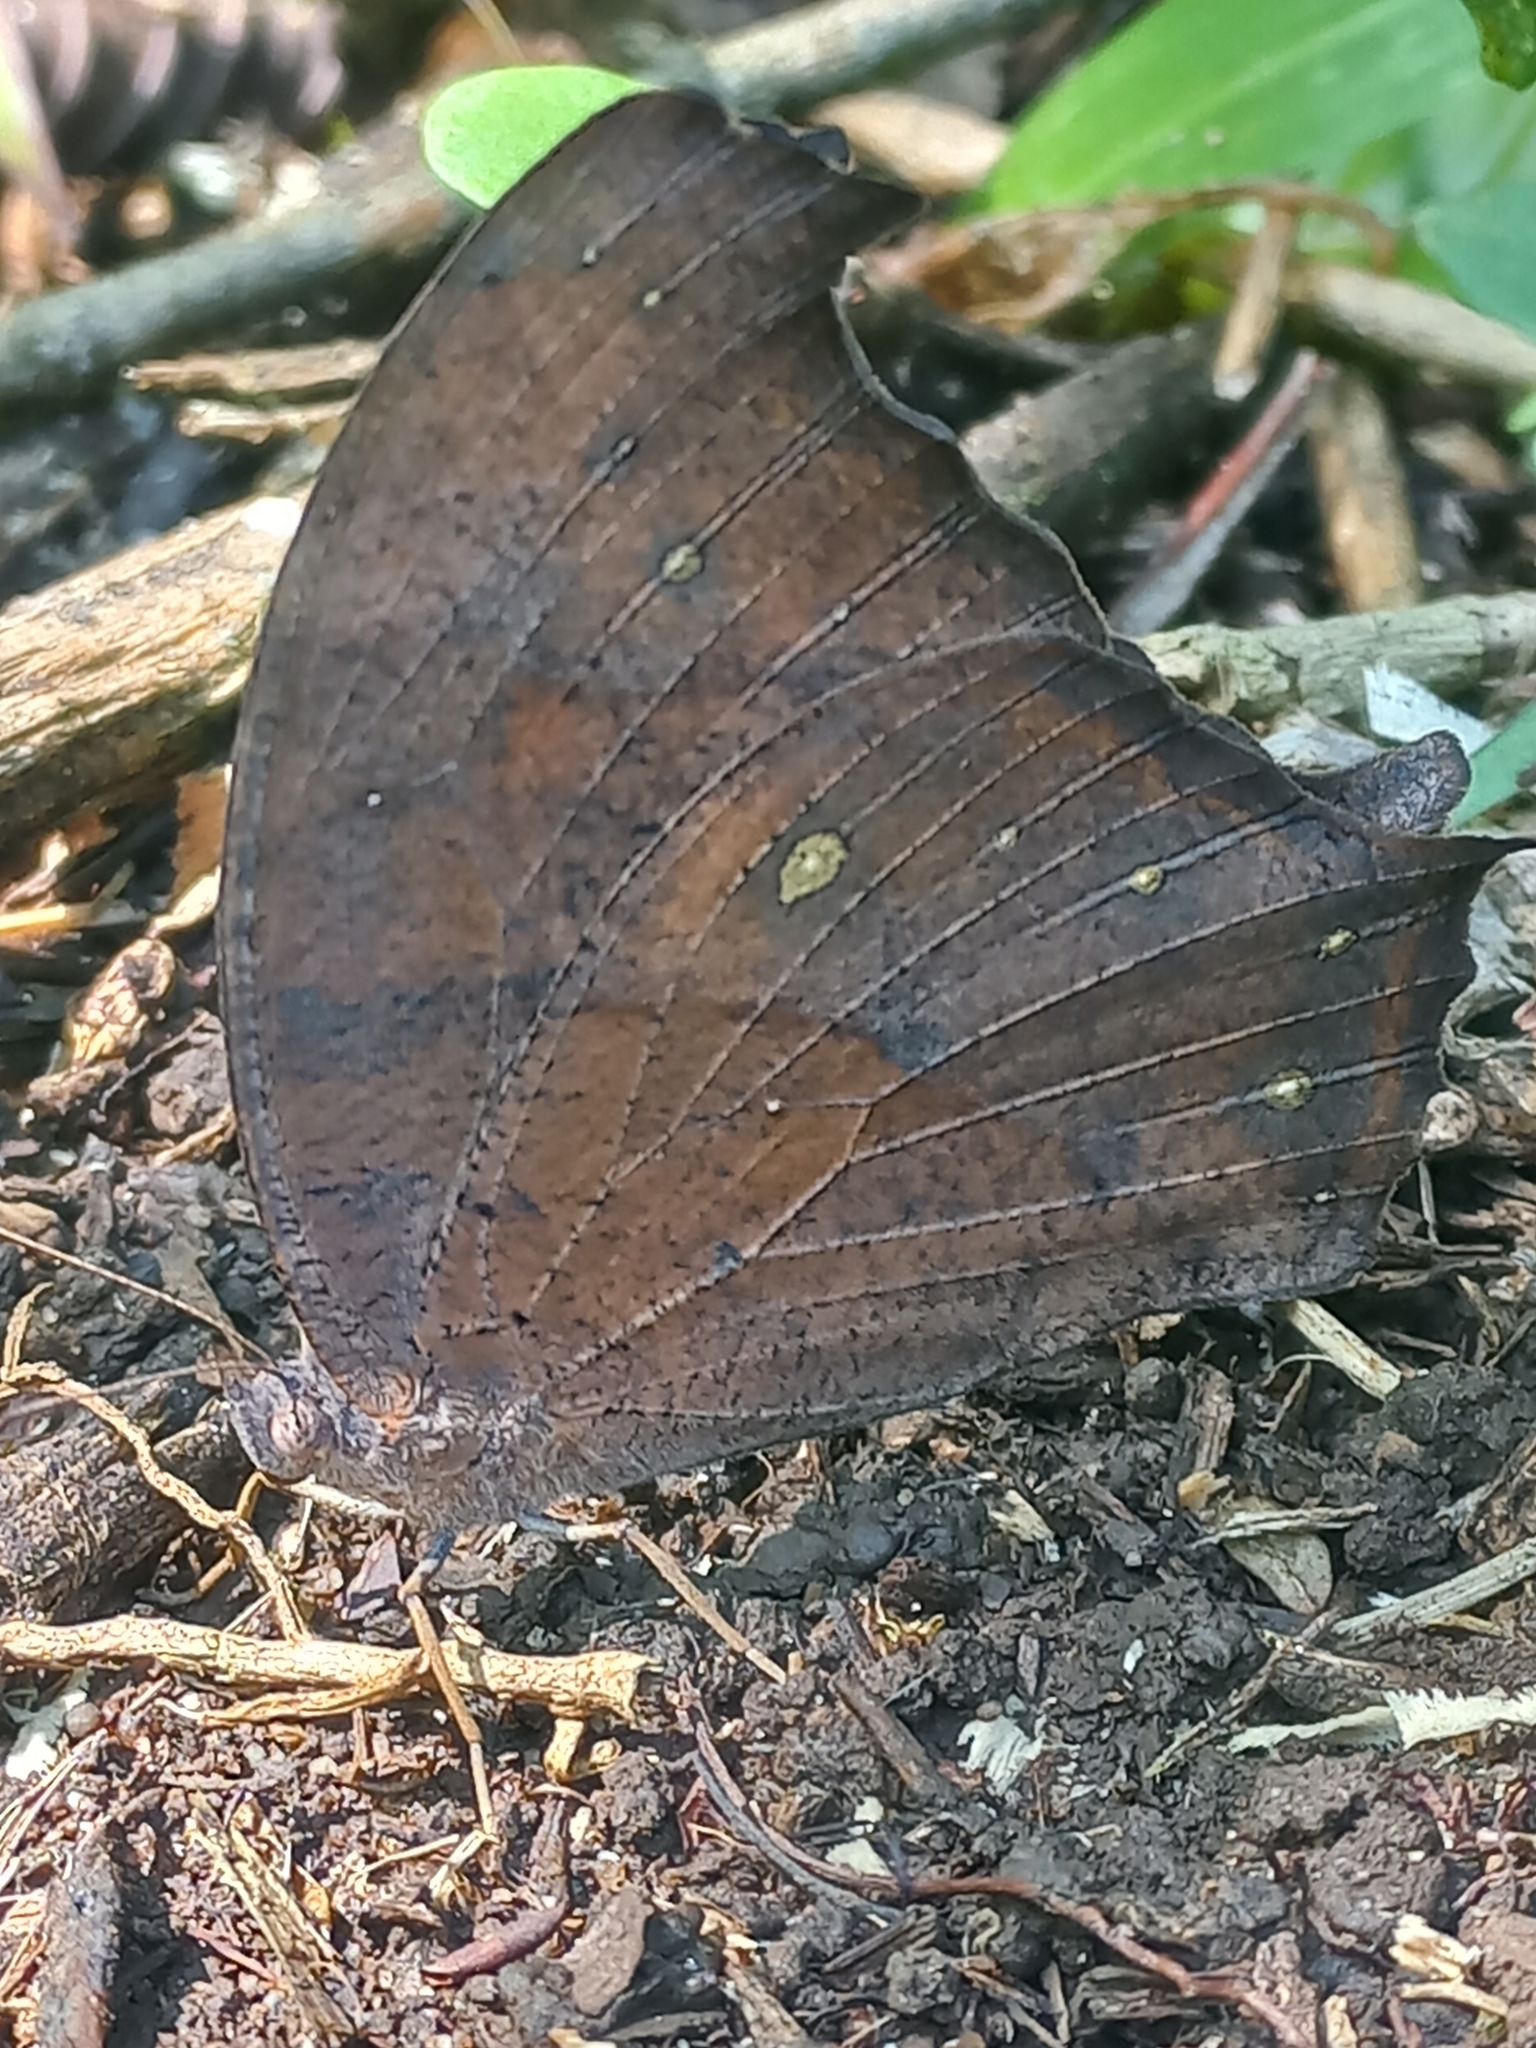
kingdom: Animalia
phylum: Arthropoda
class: Insecta
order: Lepidoptera
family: Nymphalidae
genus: Melanitis
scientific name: Melanitis leda
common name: Twilight brown
